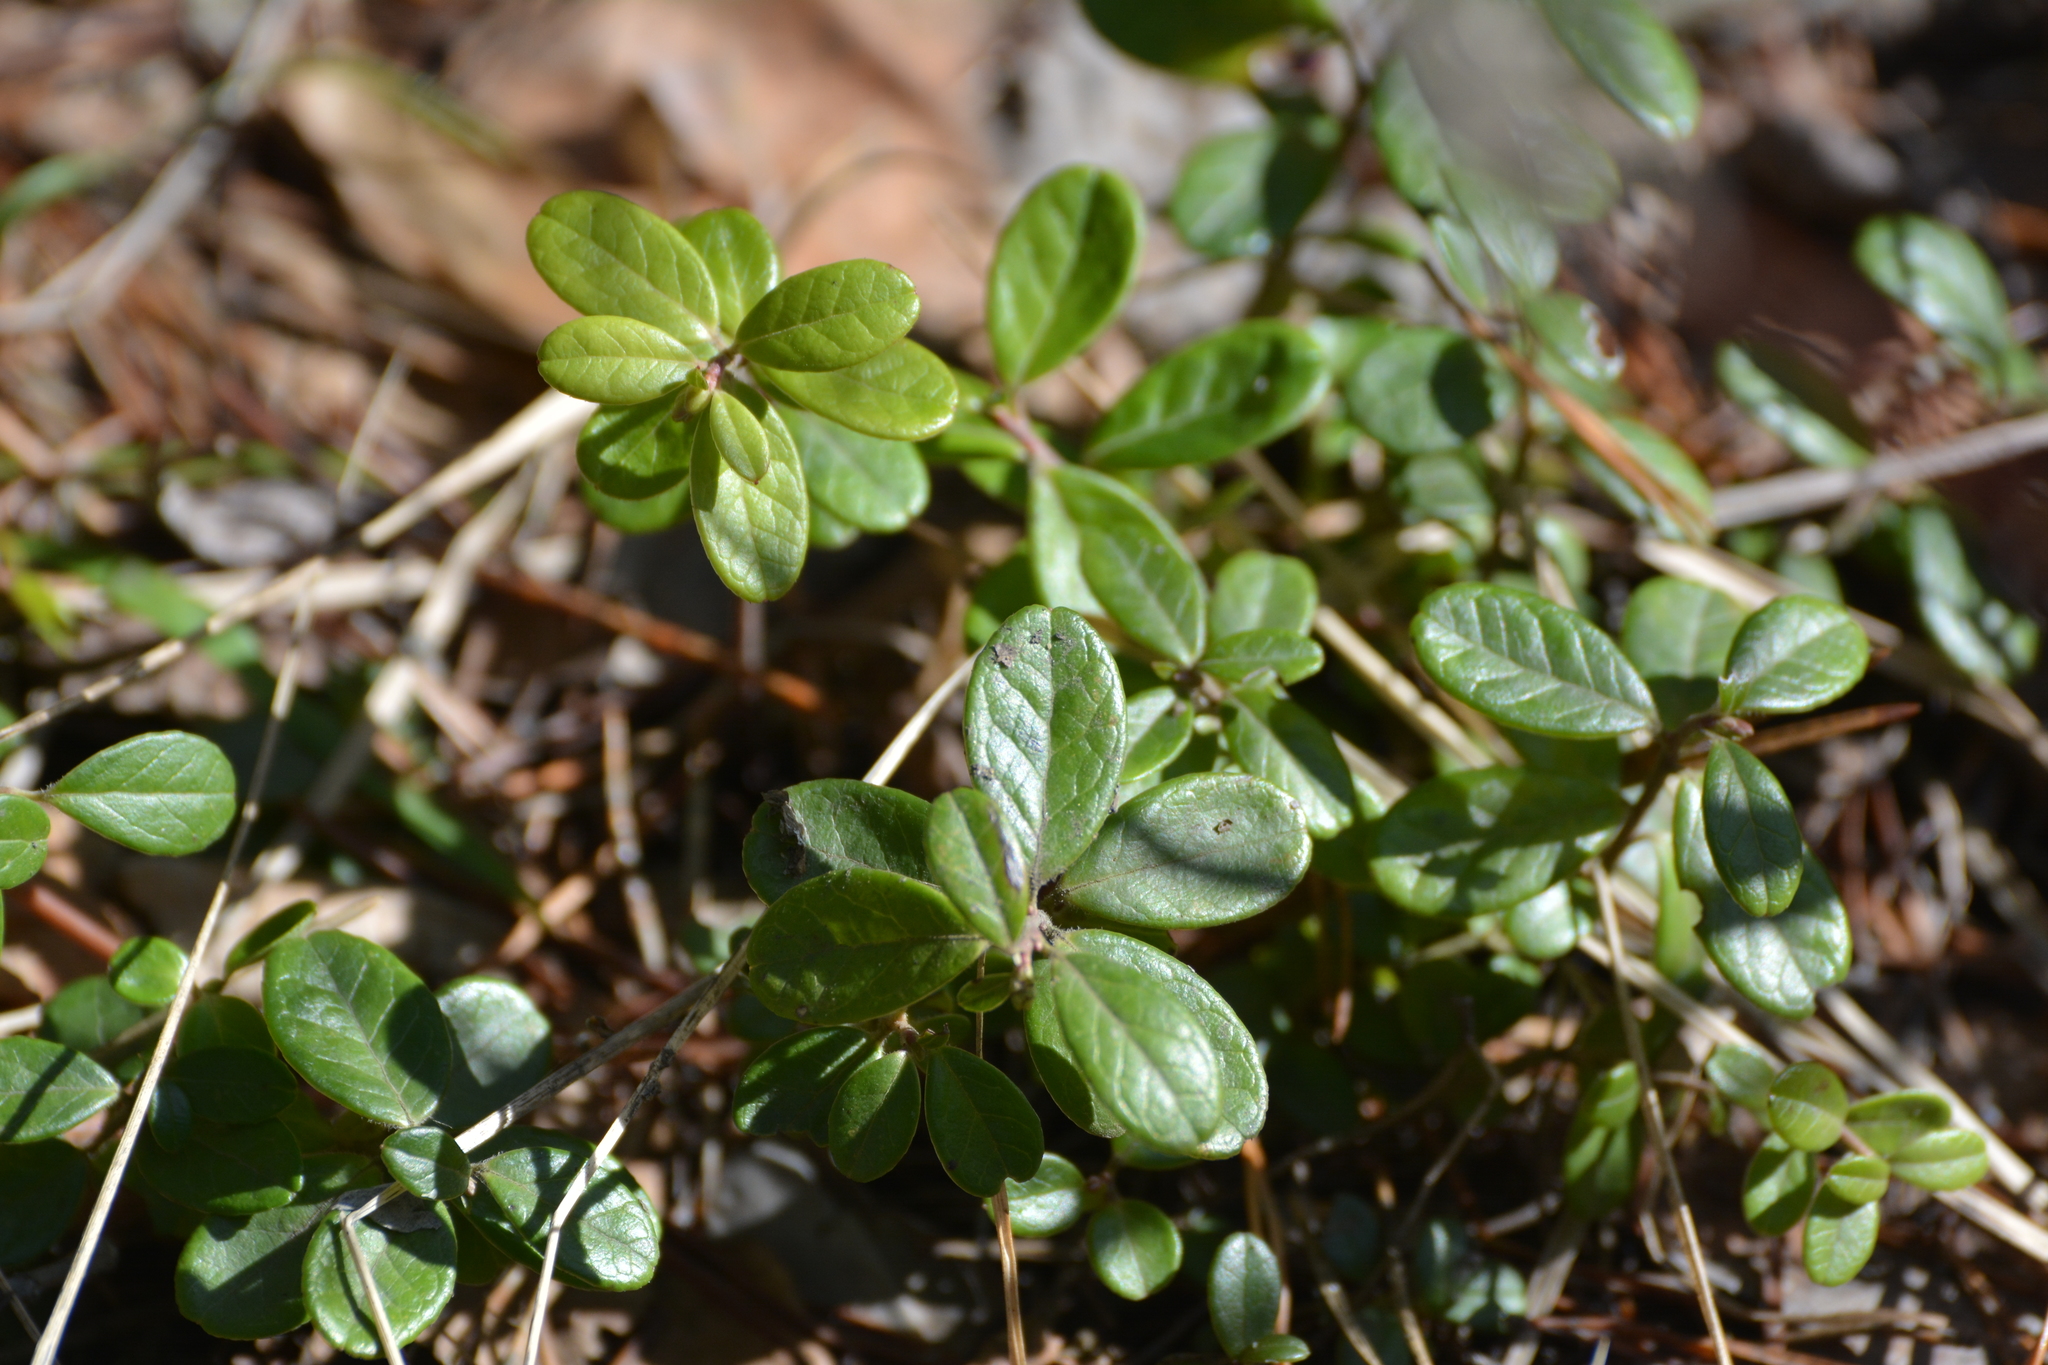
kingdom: Plantae
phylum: Tracheophyta
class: Magnoliopsida
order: Ericales
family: Ericaceae
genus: Vaccinium
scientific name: Vaccinium vitis-idaea
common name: Cowberry
